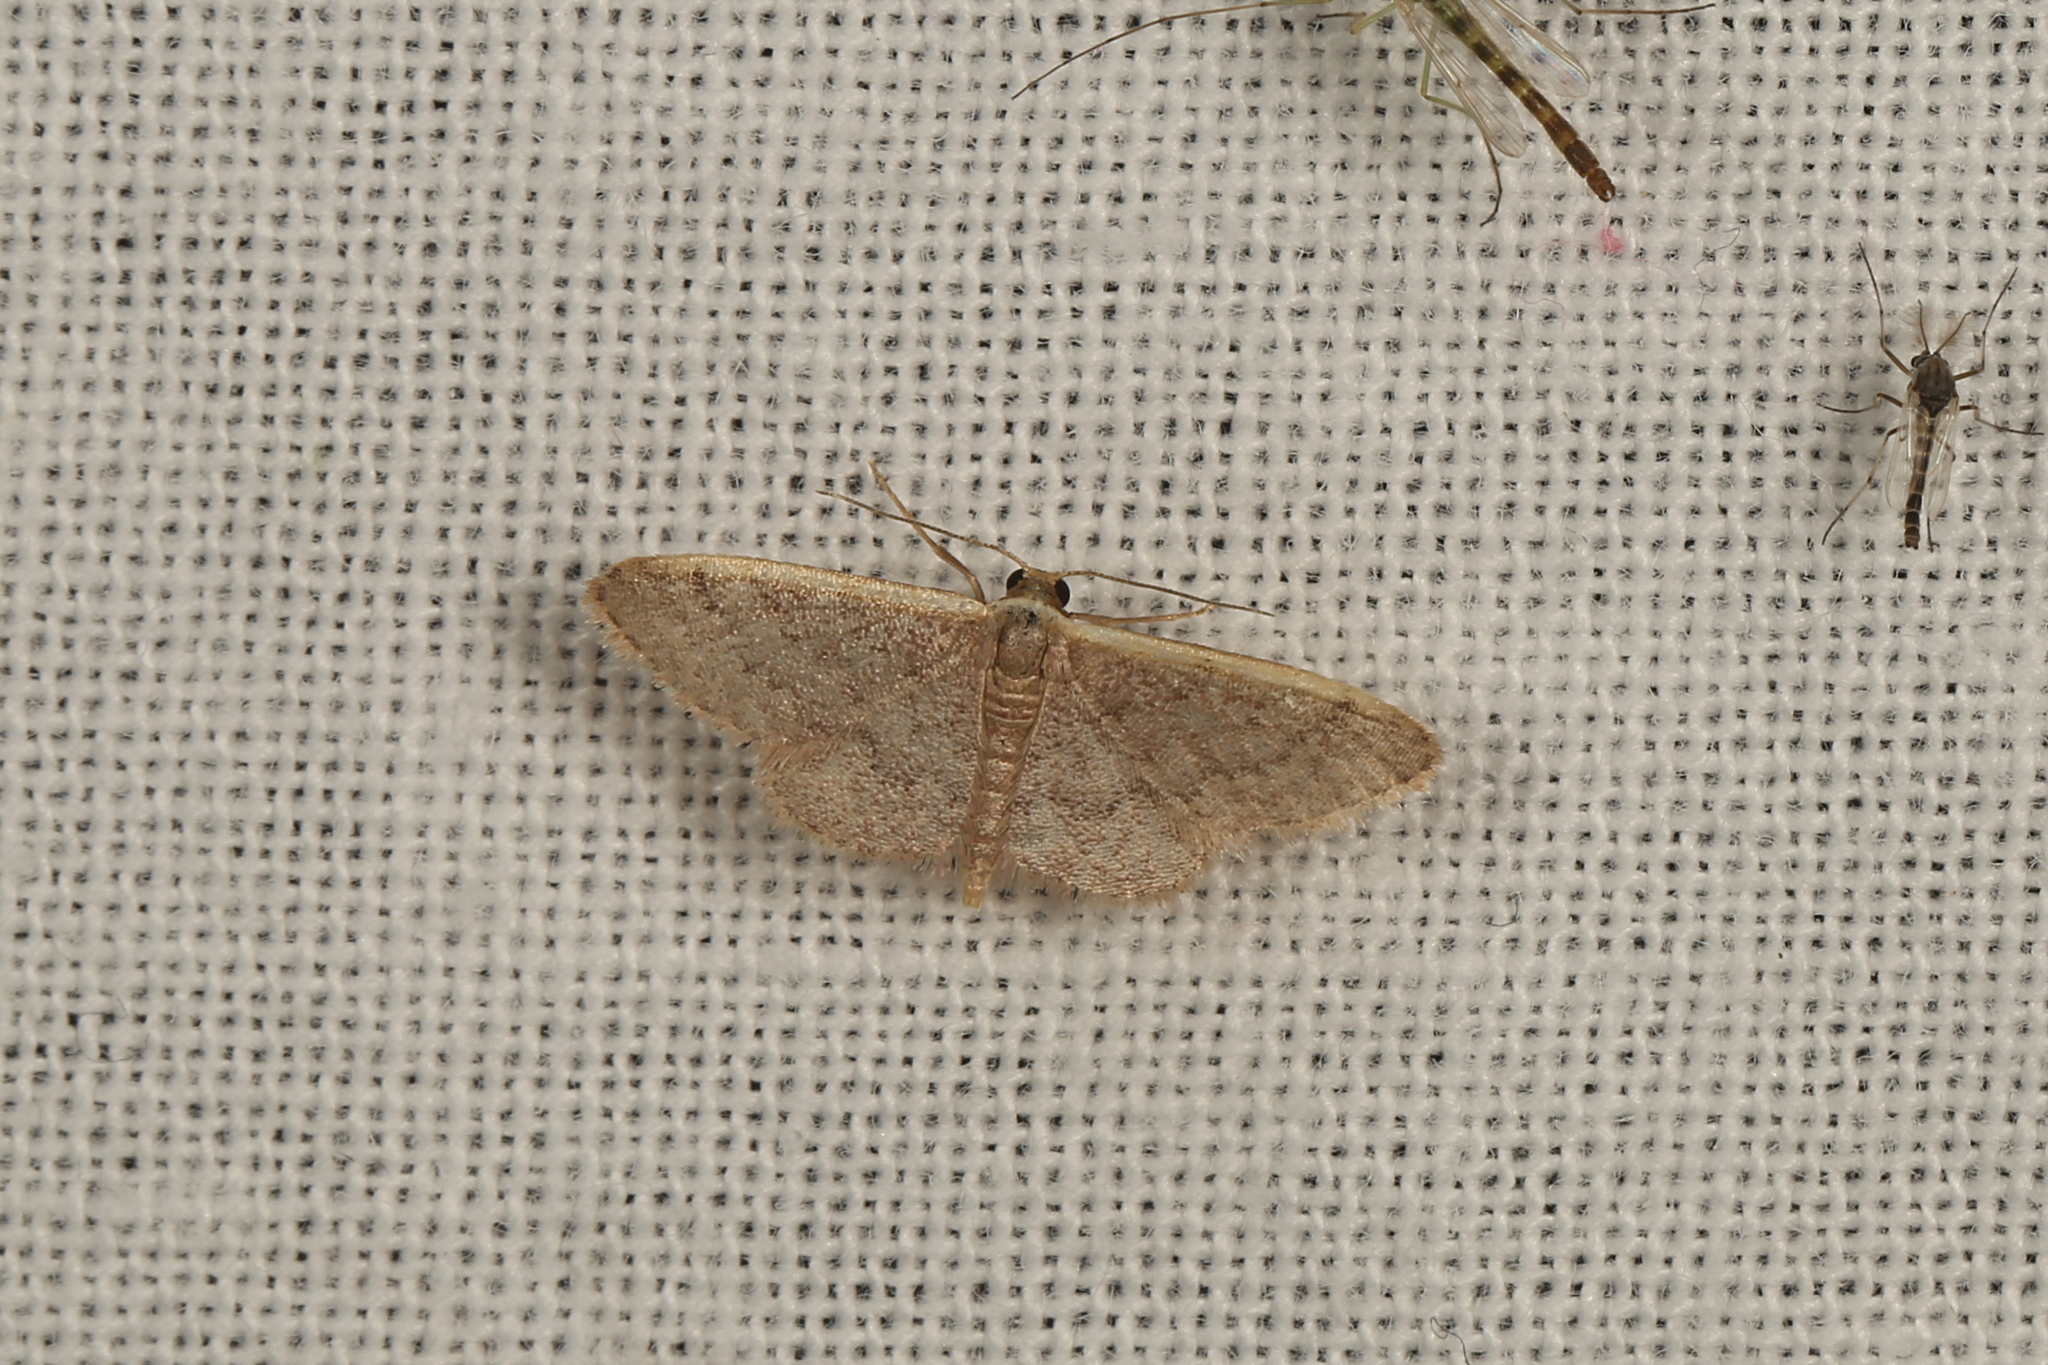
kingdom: Animalia
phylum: Arthropoda
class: Insecta
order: Lepidoptera
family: Geometridae
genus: Idaea
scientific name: Idaea inversata
